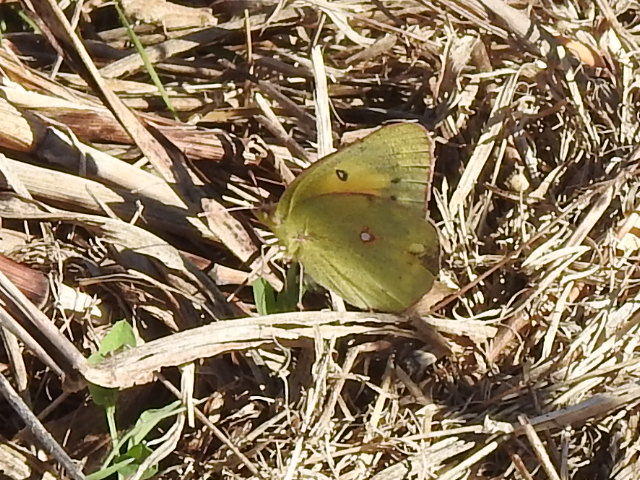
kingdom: Animalia
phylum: Arthropoda
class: Insecta
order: Lepidoptera
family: Pieridae
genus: Colias
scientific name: Colias eurytheme
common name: Alfalfa butterfly
